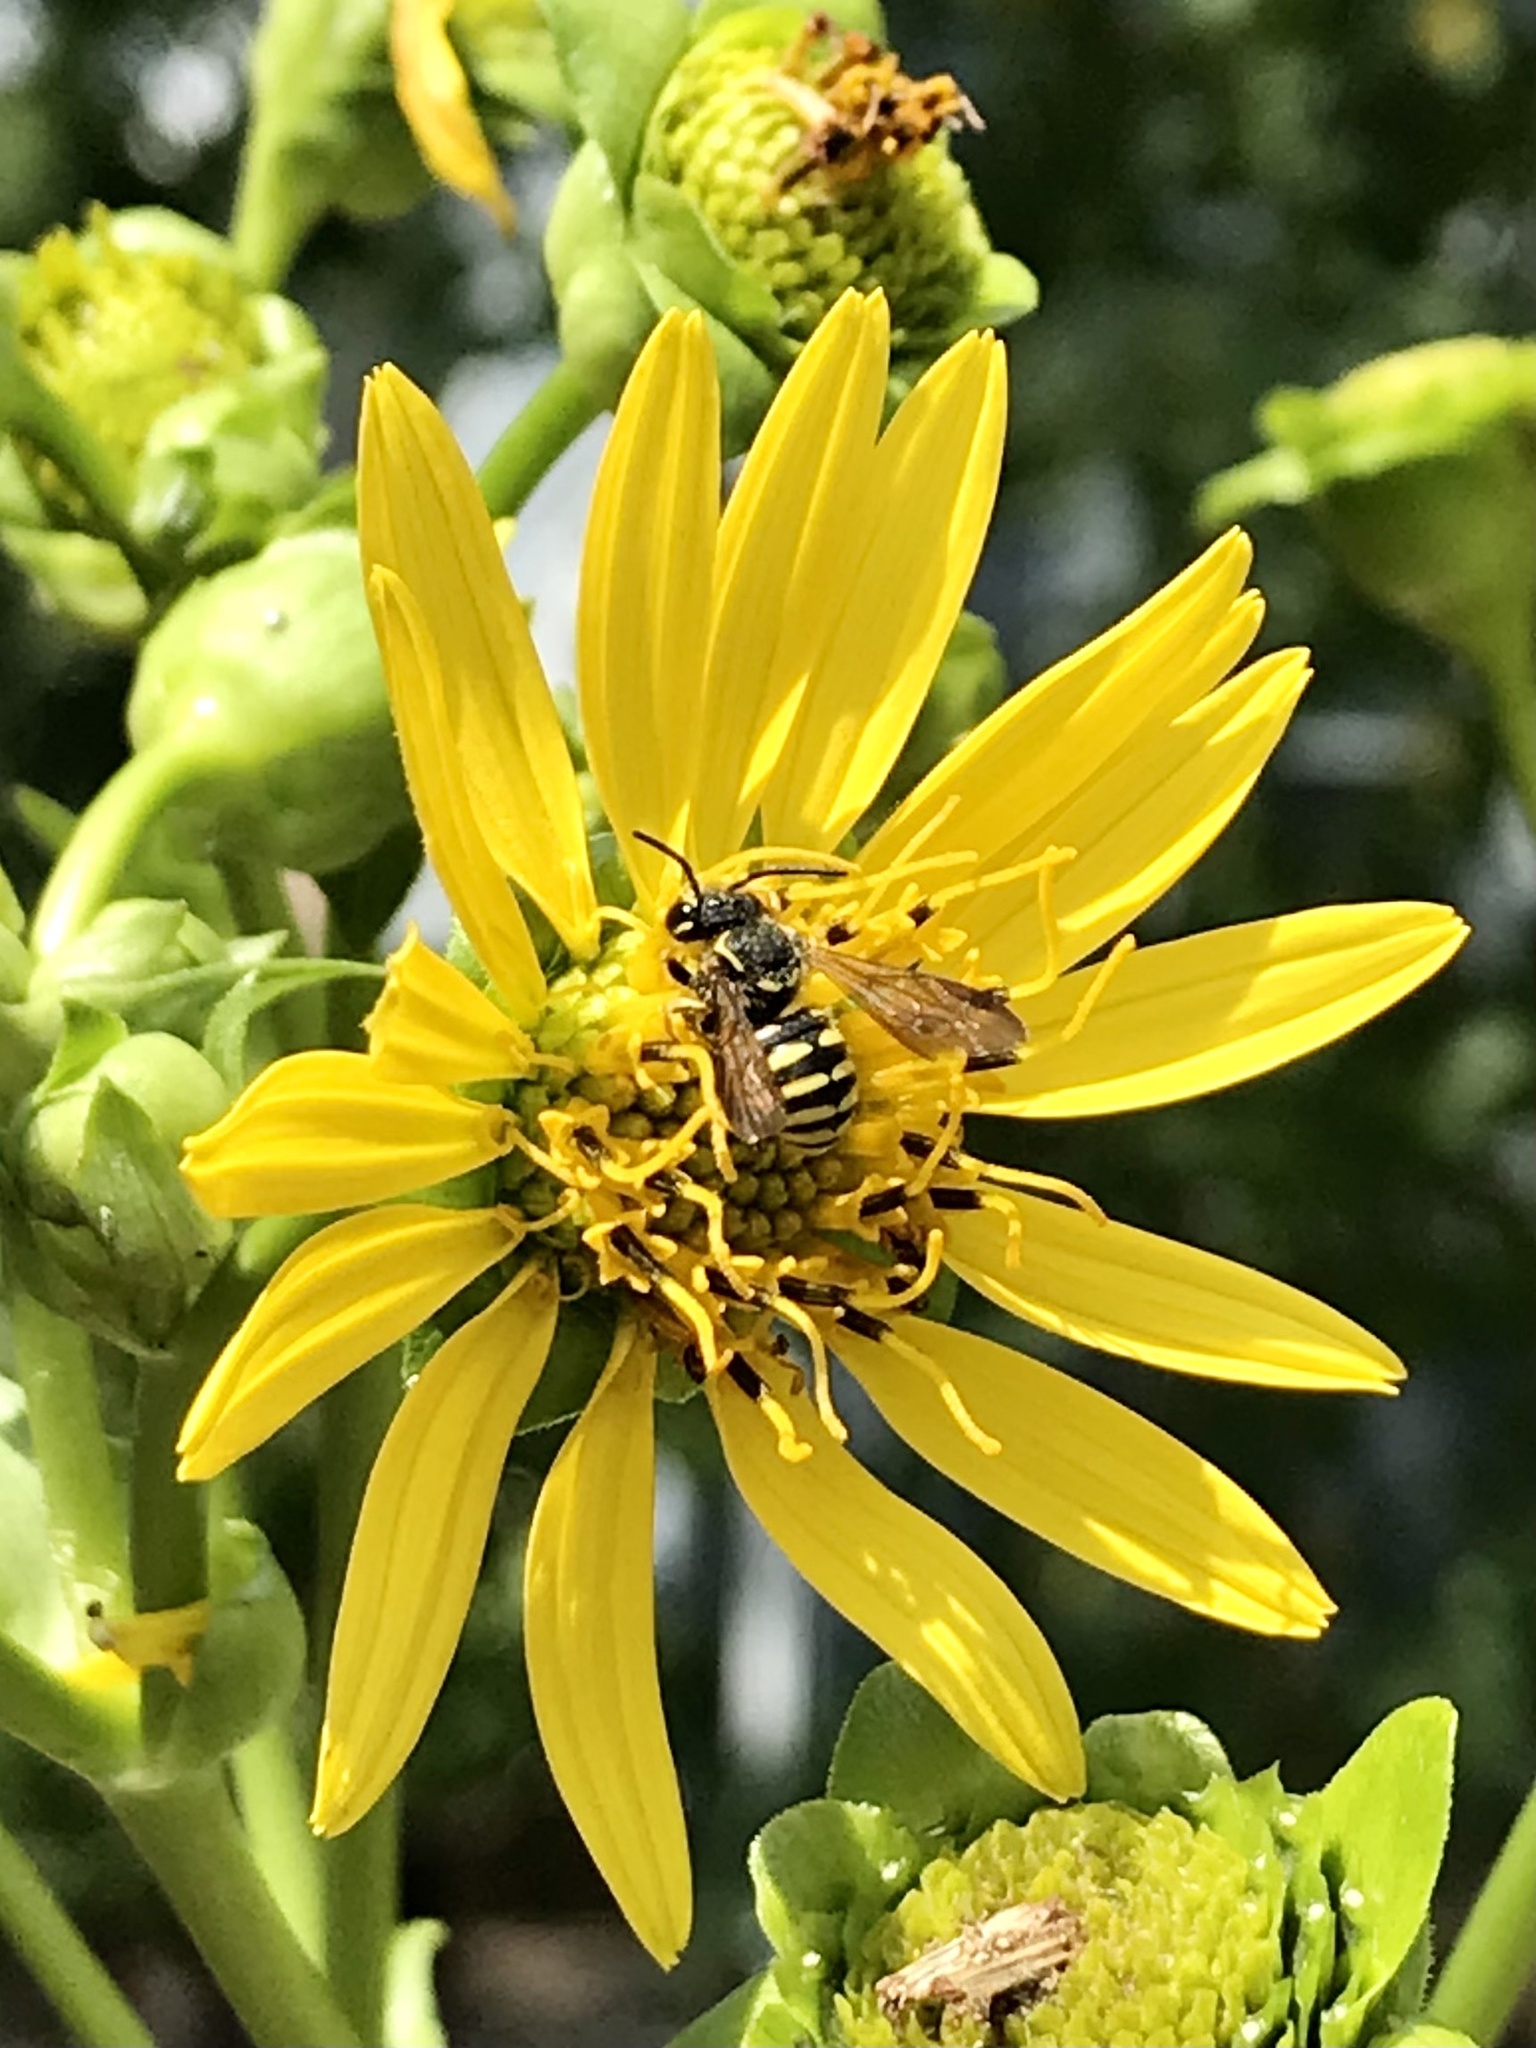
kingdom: Animalia
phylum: Arthropoda
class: Insecta
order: Hymenoptera
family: Megachilidae
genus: Paranthidium
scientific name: Paranthidium jugatorium
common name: Sunflower burrowing-resin bee
